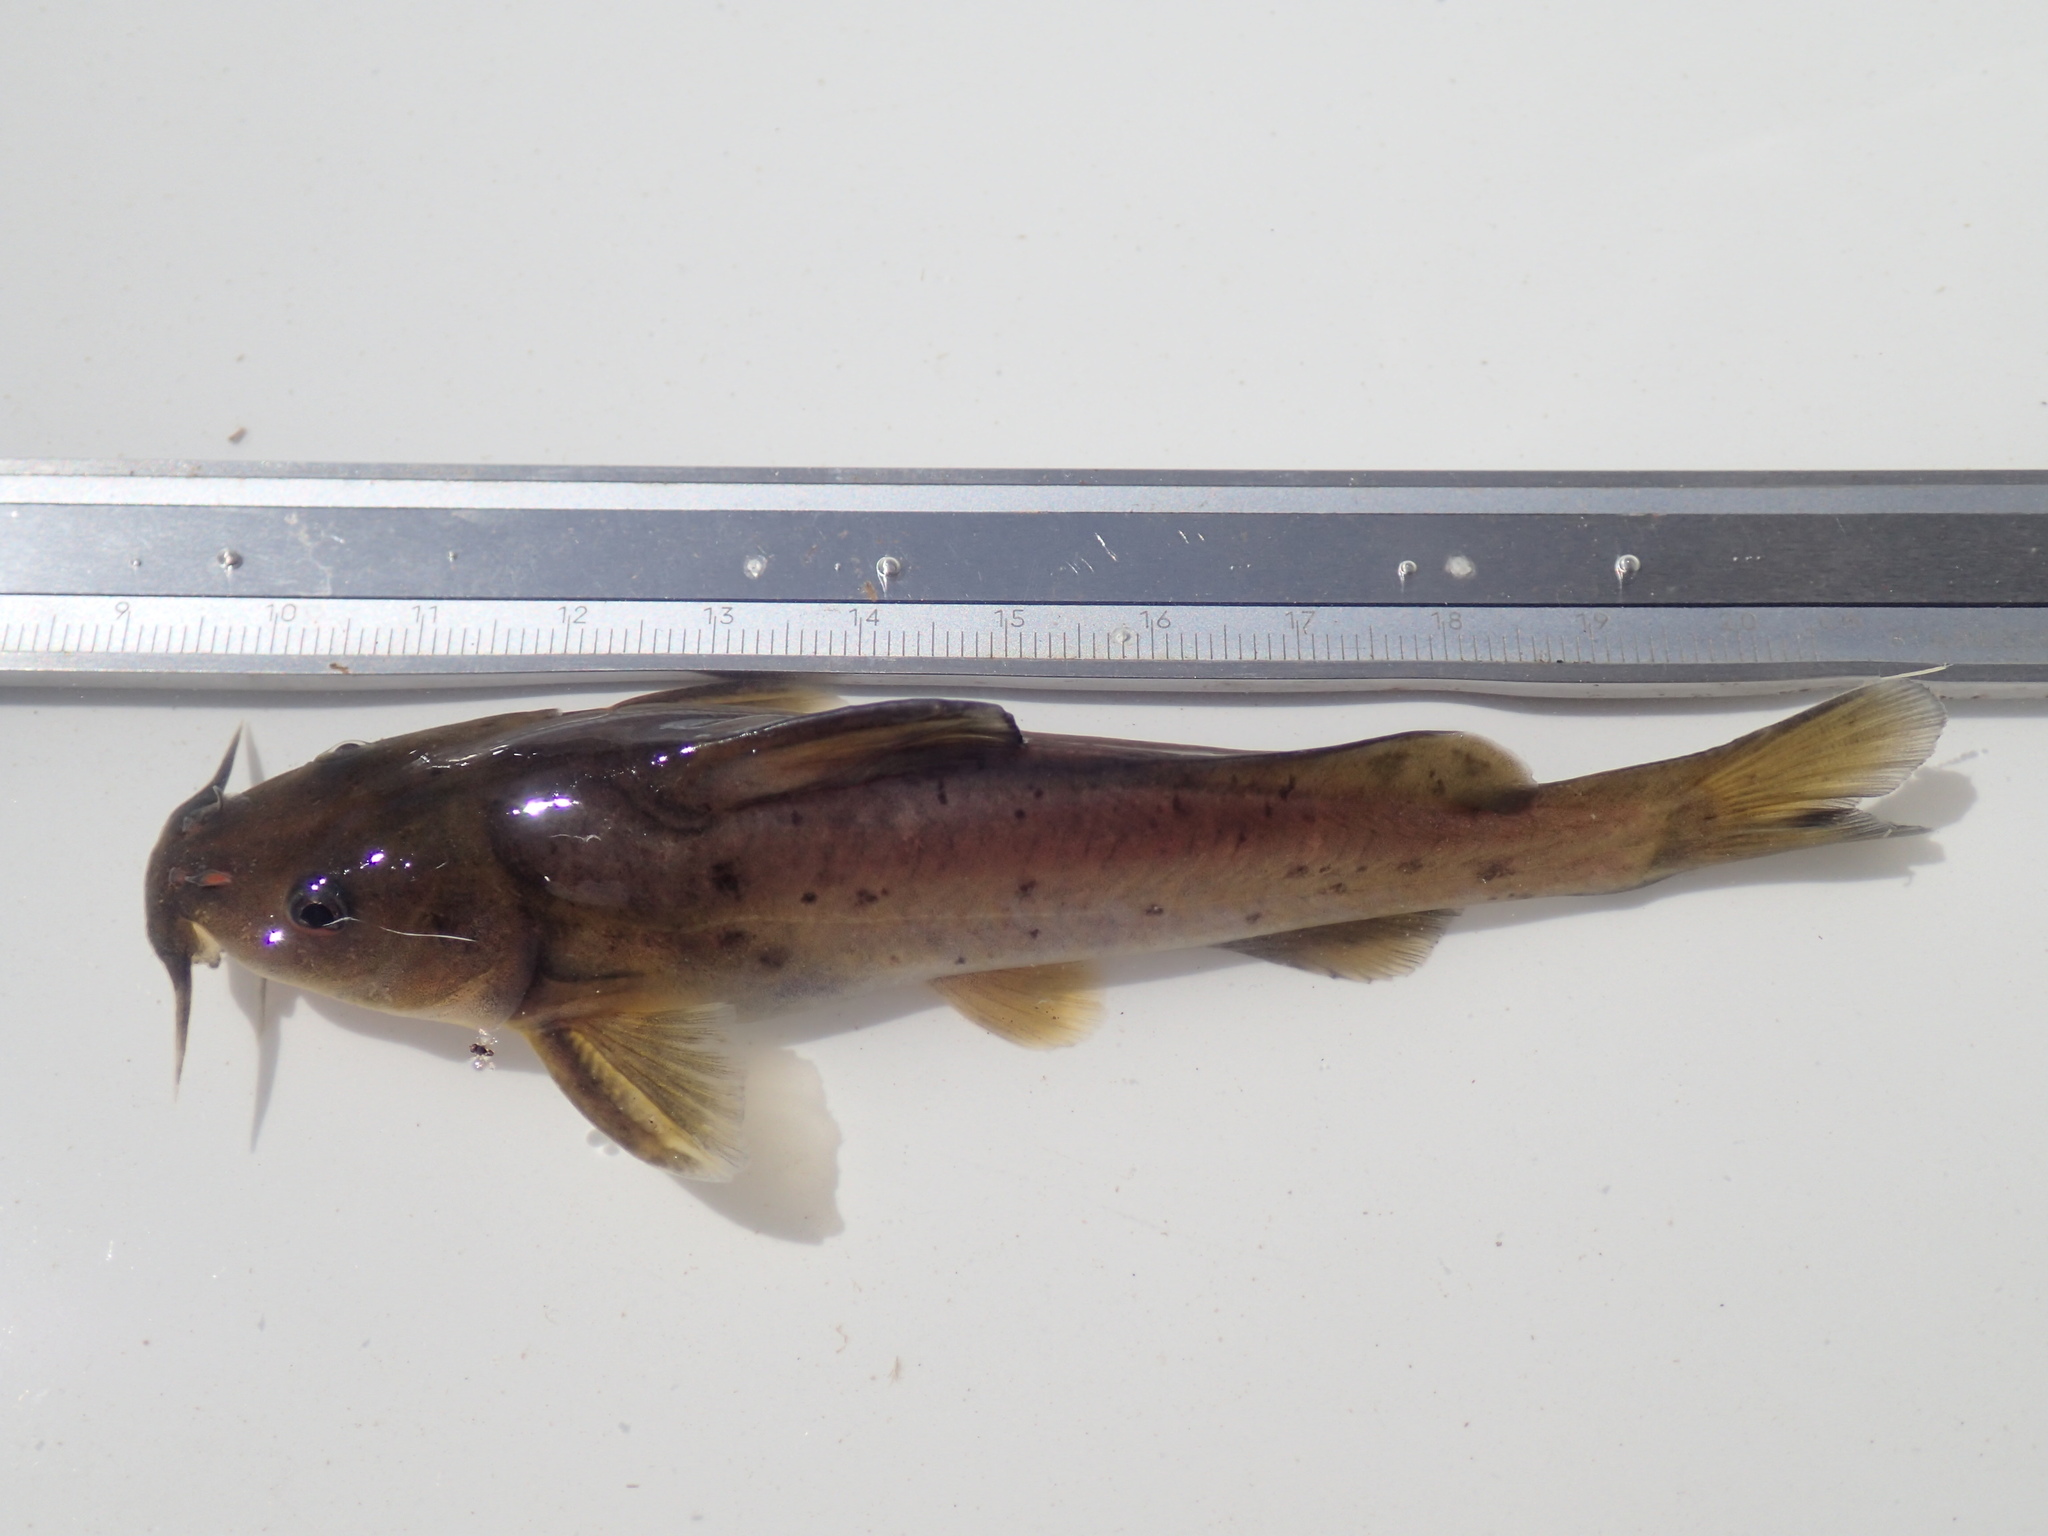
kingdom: Animalia
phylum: Chordata
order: Siluriformes
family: Austroglanididae
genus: Austroglanis
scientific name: Austroglanis sclateri
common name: Rock catfish
